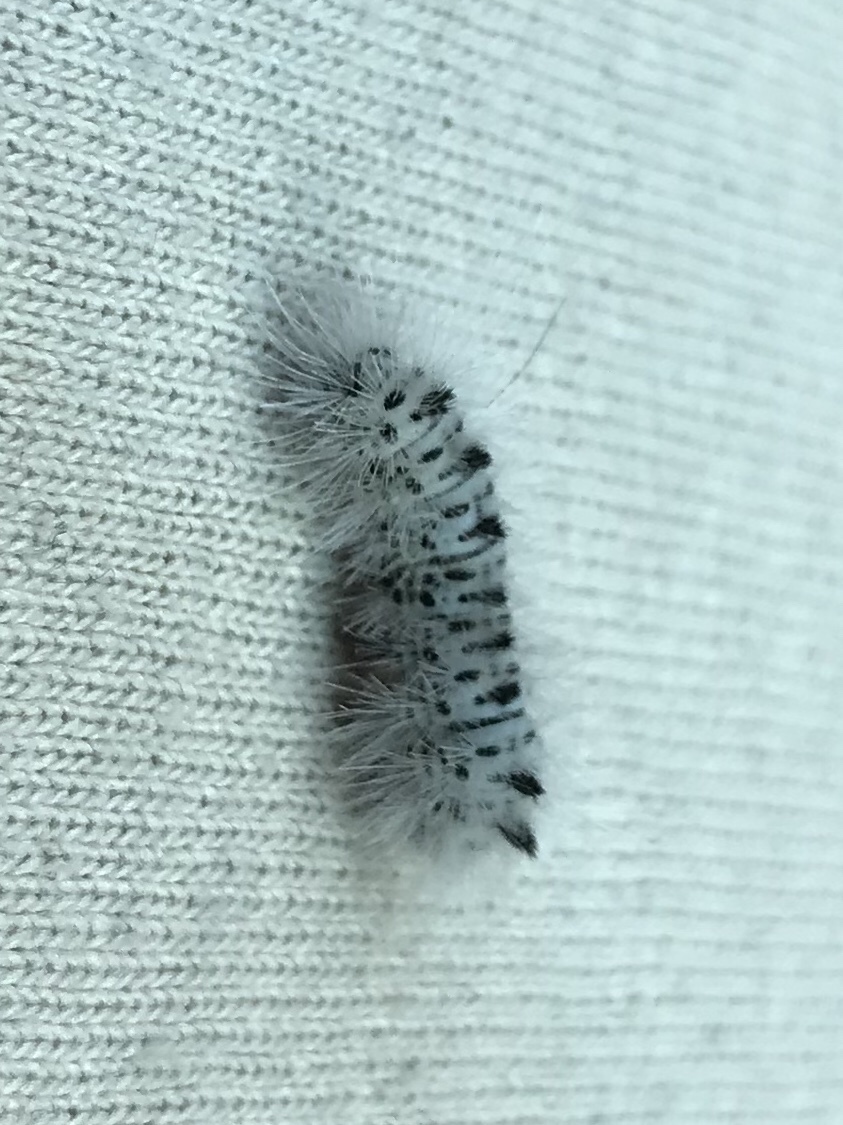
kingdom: Animalia
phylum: Arthropoda
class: Insecta
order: Lepidoptera
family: Erebidae
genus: Lophocampa
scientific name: Lophocampa caryae
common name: Hickory tussock moth
